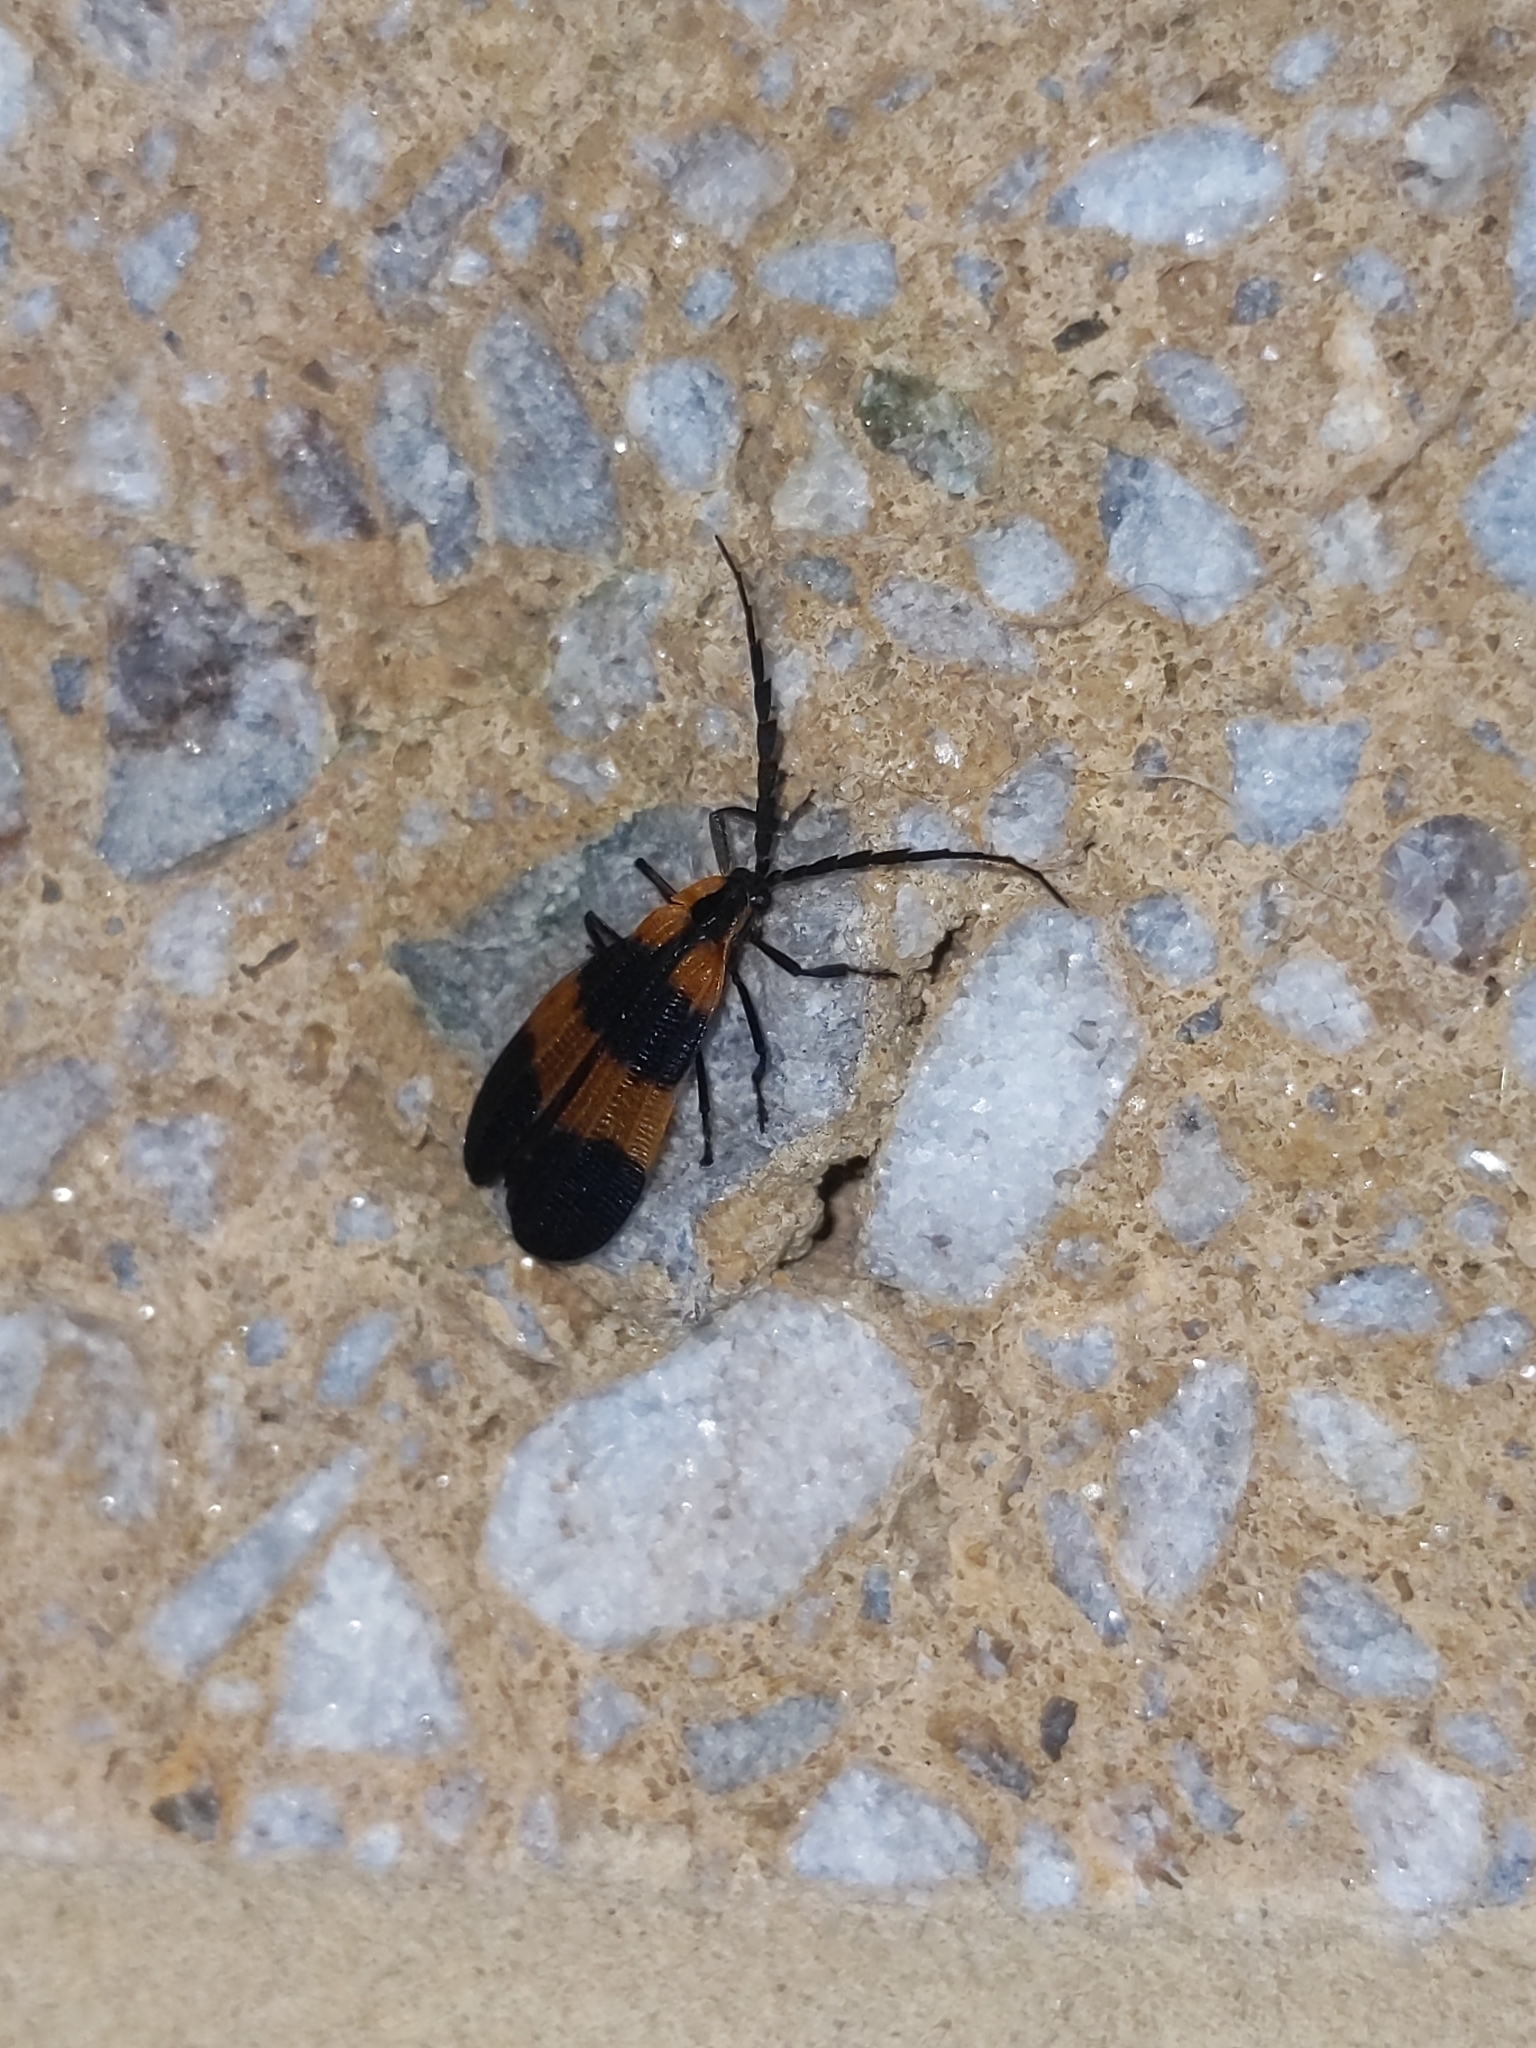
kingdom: Animalia
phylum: Arthropoda
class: Insecta
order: Coleoptera
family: Lycidae
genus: Calopteron
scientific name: Calopteron reticulatum
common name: Banded net-winged beetle
